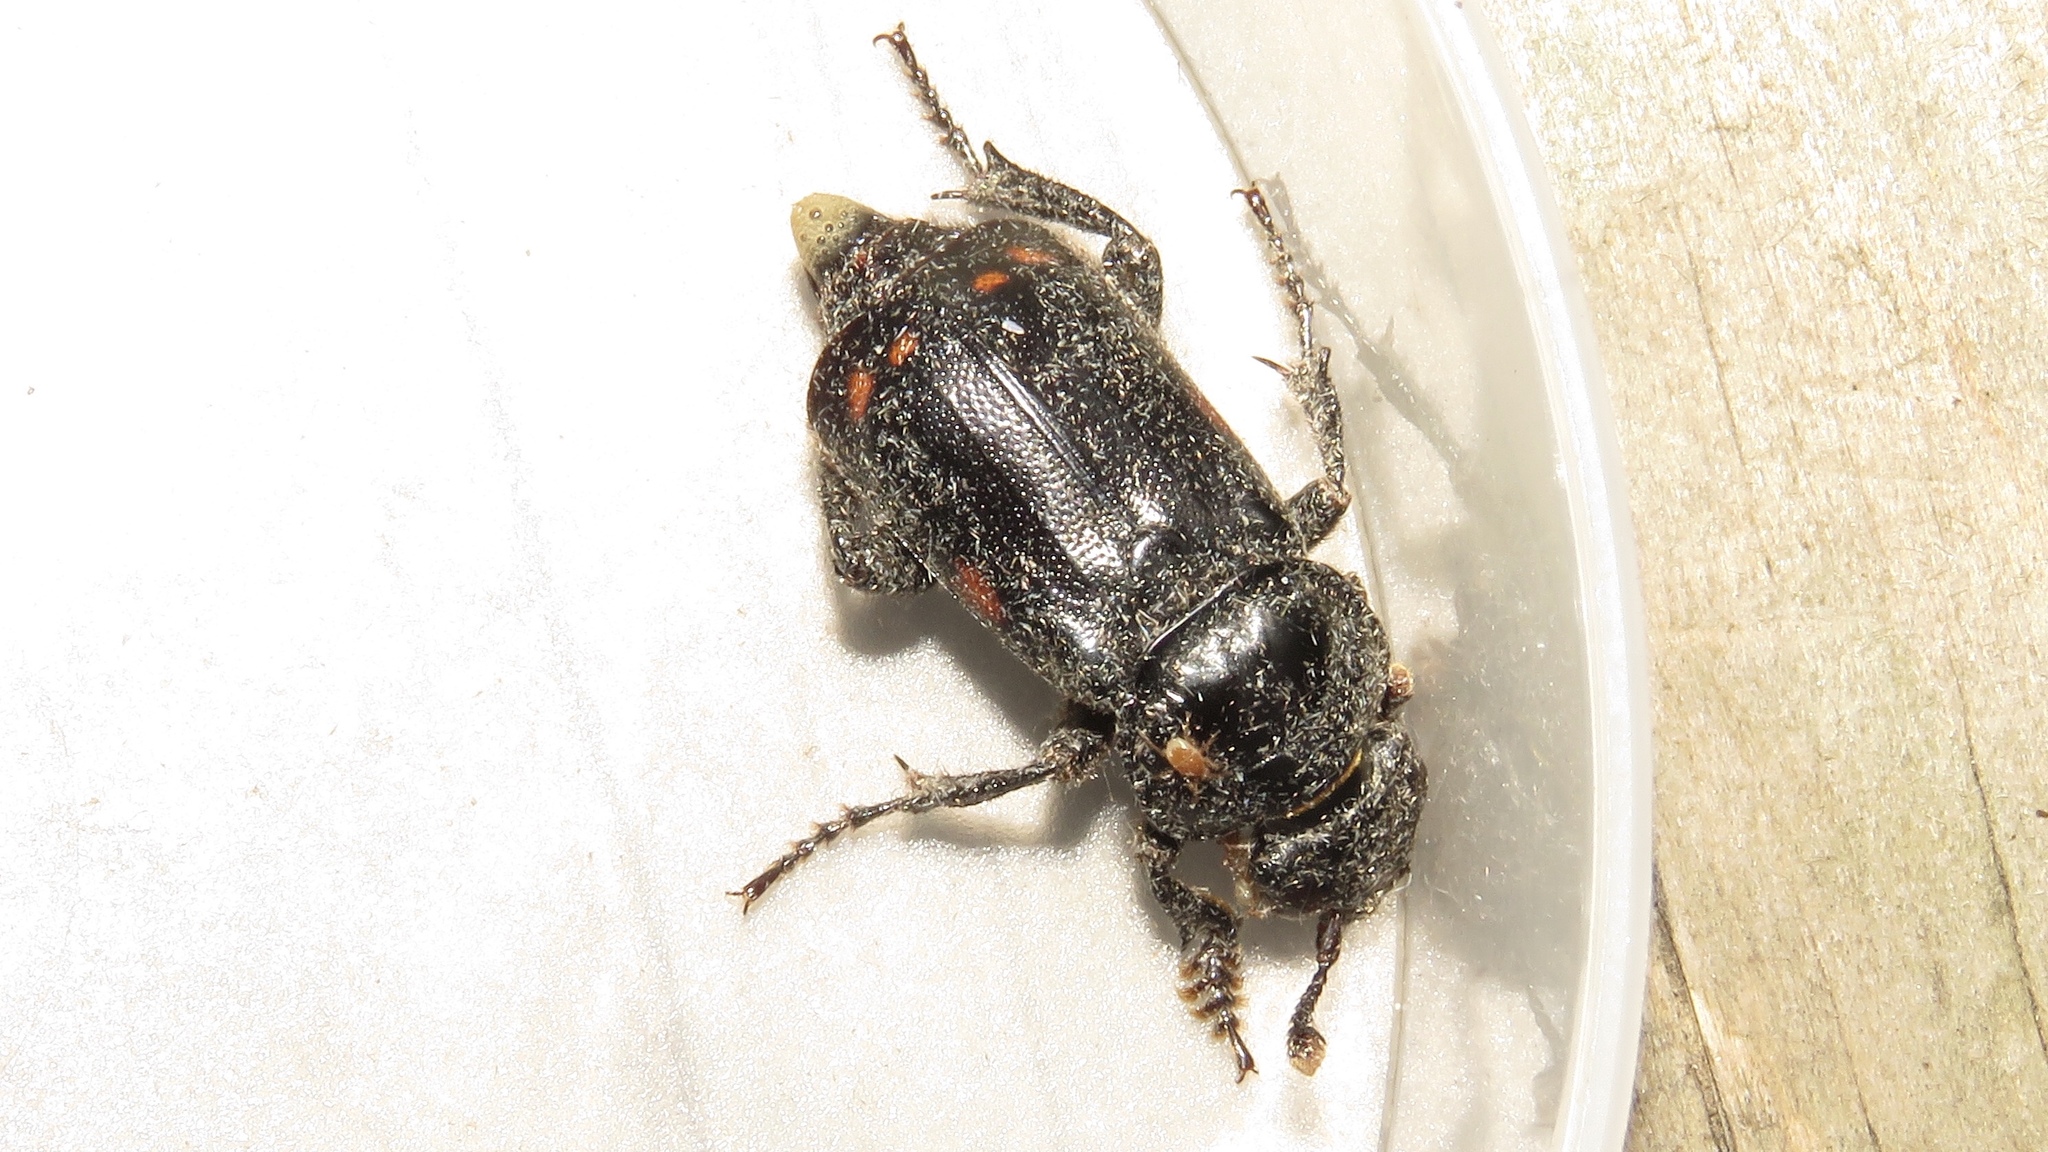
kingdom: Animalia
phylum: Arthropoda
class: Insecta
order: Coleoptera
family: Staphylinidae
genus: Nicrophorus
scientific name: Nicrophorus pustulatus
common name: Pustulated carrion beetle
